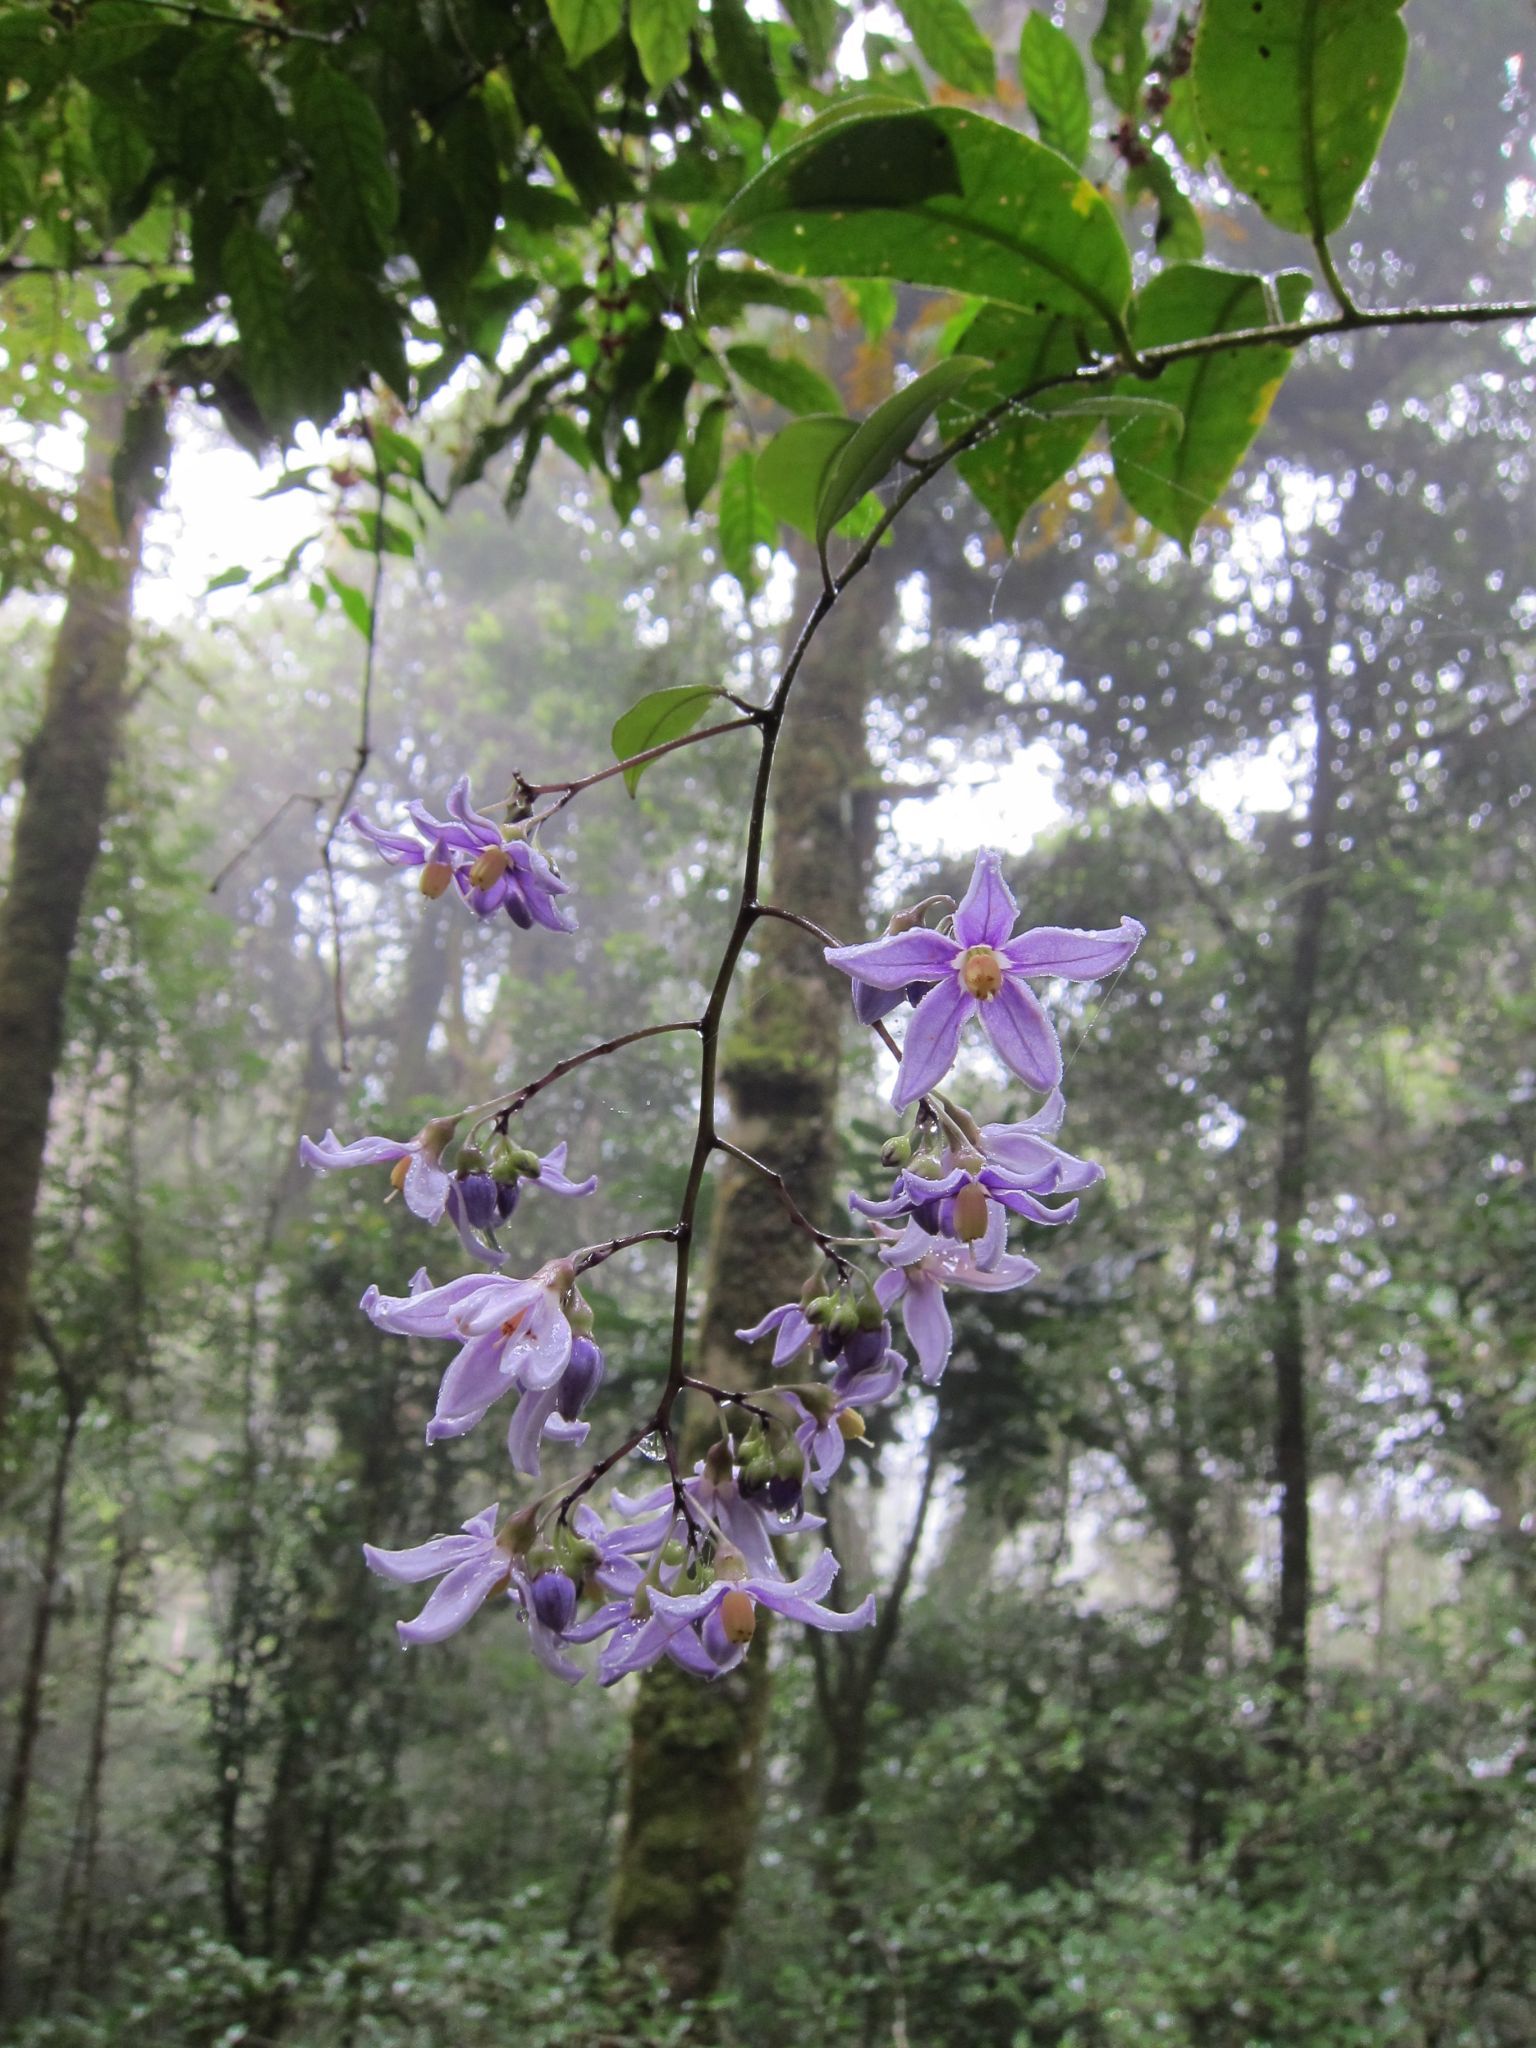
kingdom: Plantae
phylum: Tracheophyta
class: Magnoliopsida
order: Solanales
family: Solanaceae
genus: Solanum
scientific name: Solanum madagascariense
